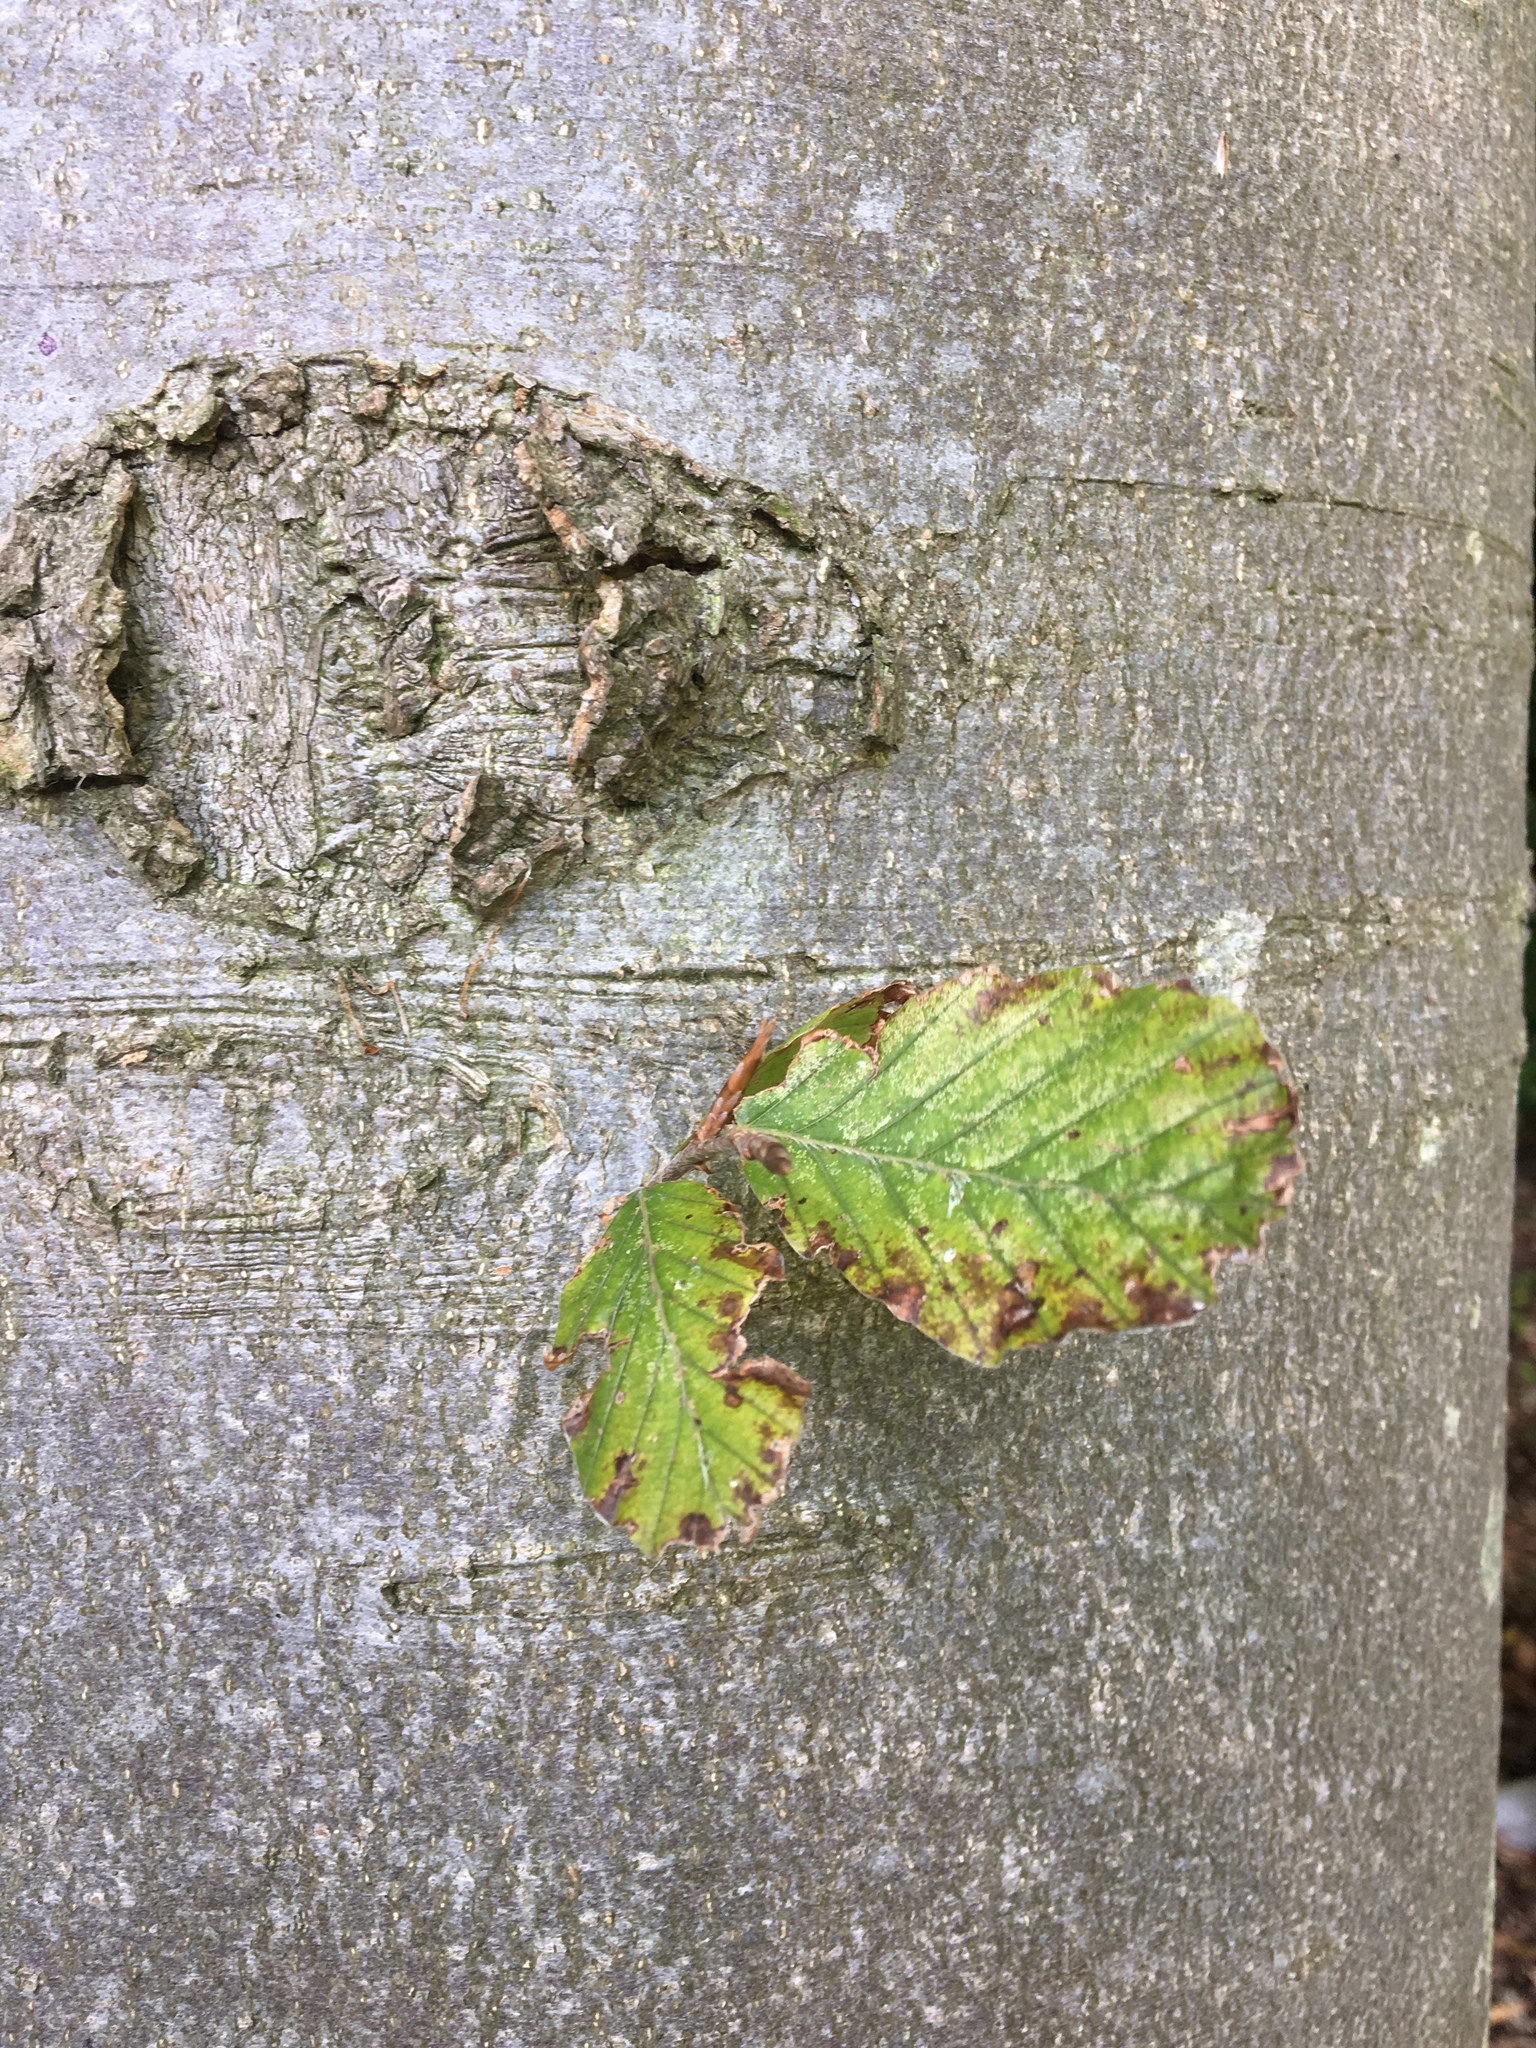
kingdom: Plantae
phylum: Tracheophyta
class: Magnoliopsida
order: Fagales
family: Fagaceae
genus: Fagus
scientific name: Fagus sylvatica
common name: Beech
